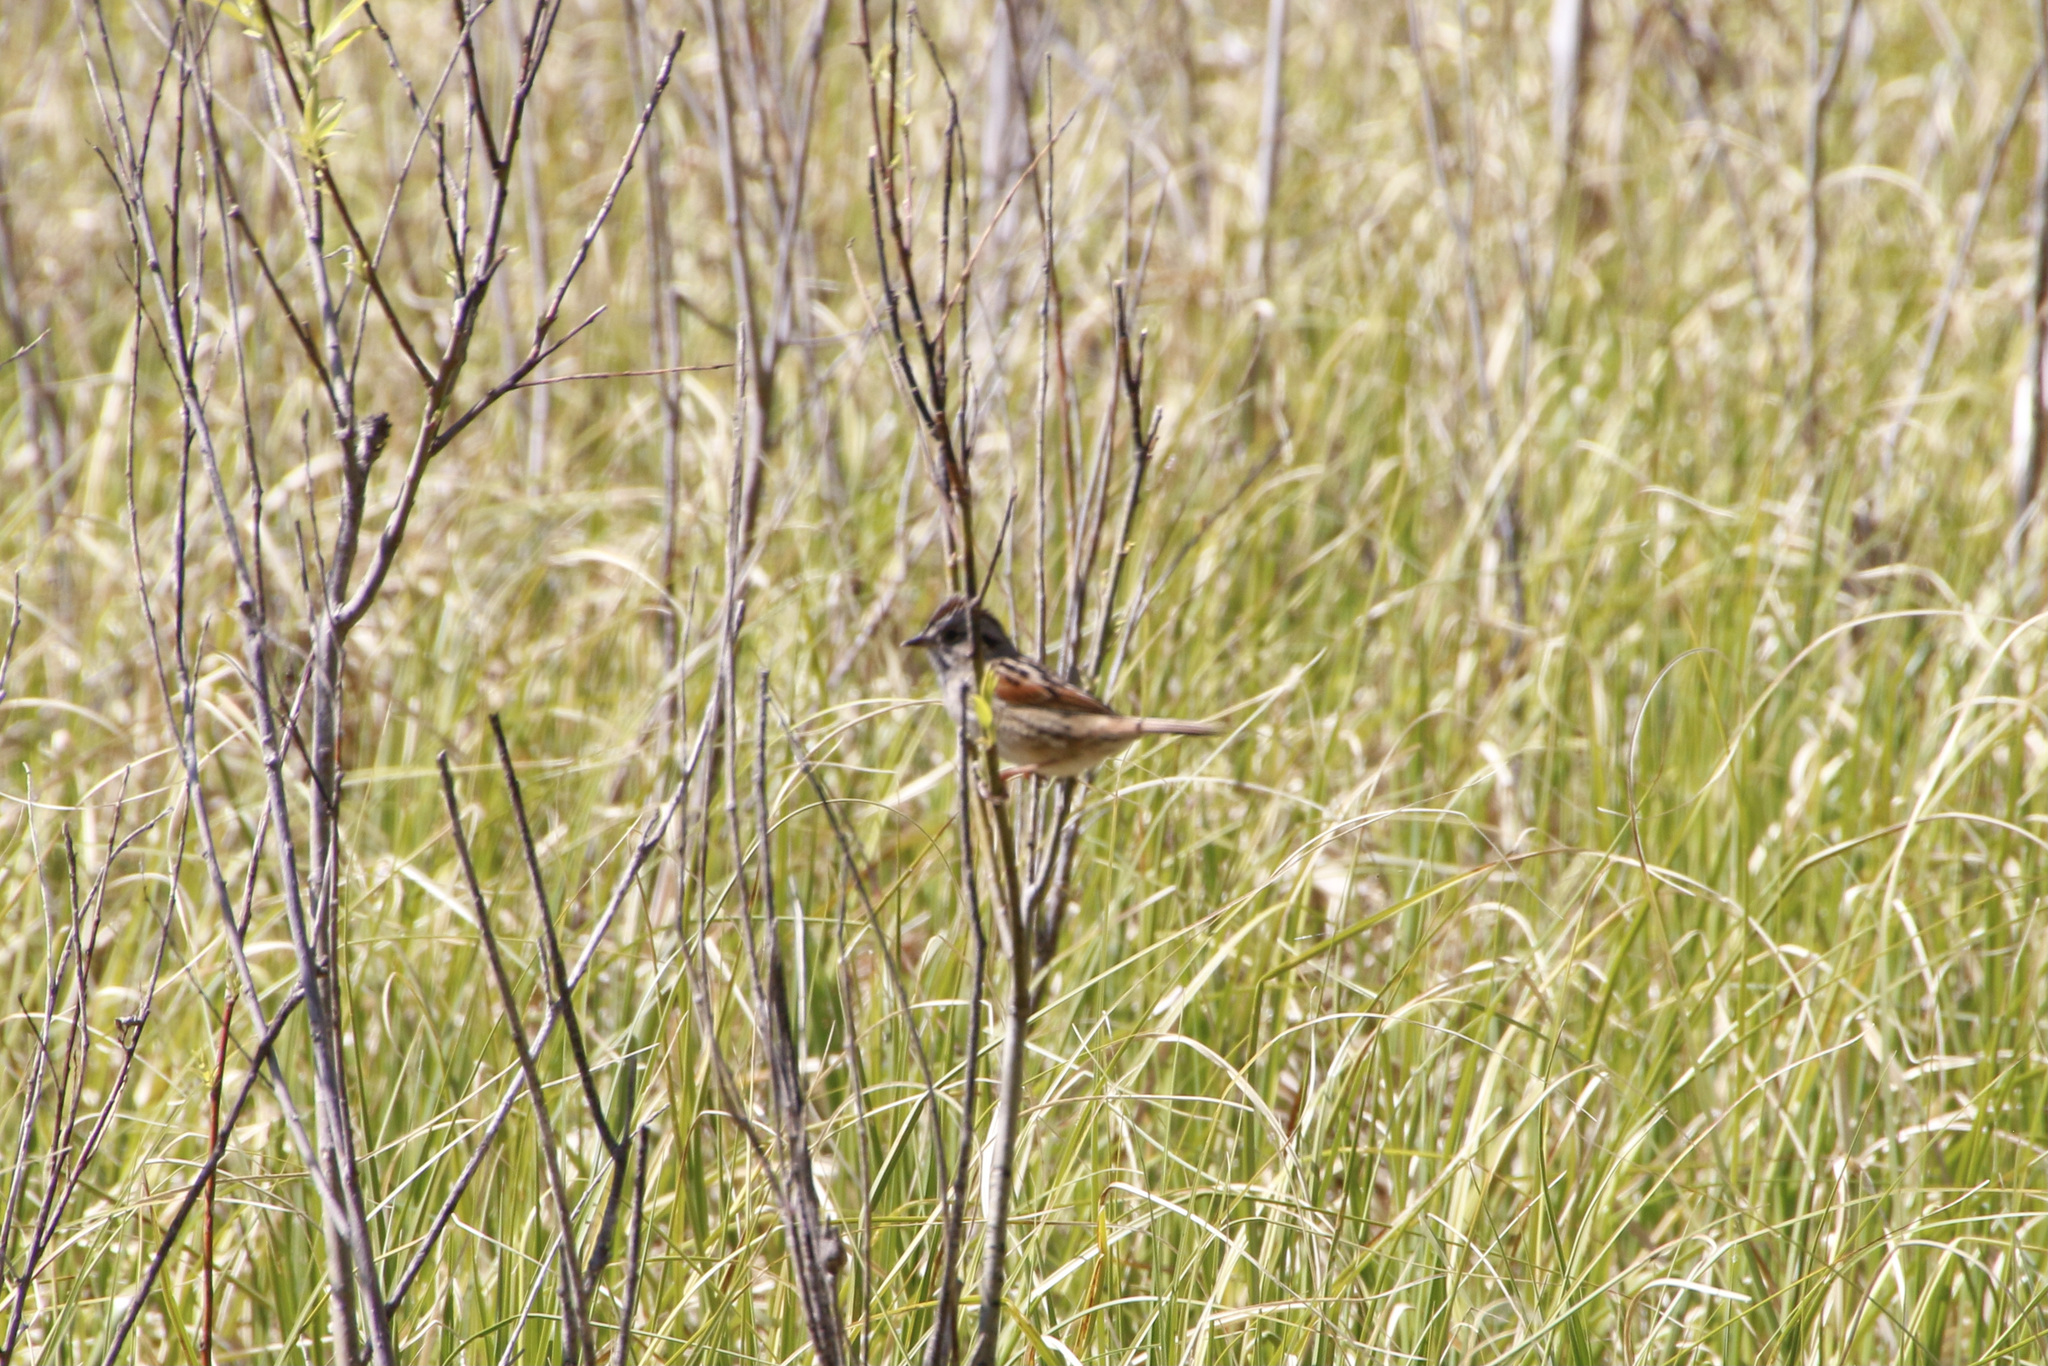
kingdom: Animalia
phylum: Chordata
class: Aves
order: Passeriformes
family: Passerellidae
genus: Melospiza
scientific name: Melospiza georgiana
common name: Swamp sparrow
